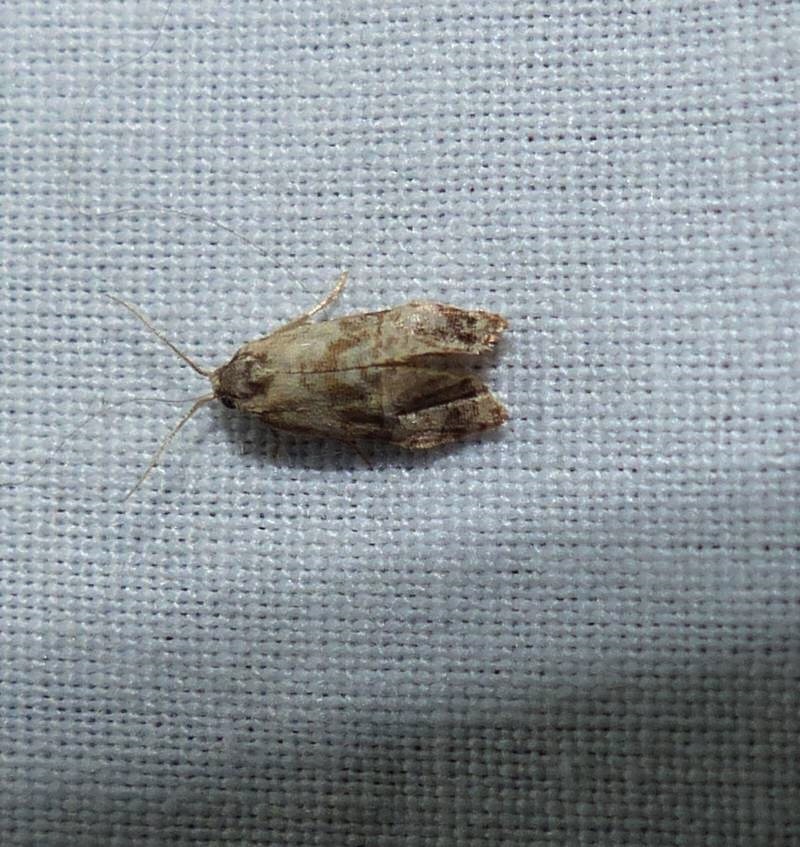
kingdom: Animalia
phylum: Arthropoda
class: Insecta
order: Lepidoptera
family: Tortricidae
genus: Cochylis
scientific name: Cochylis Cochylichroa hoffmanana
